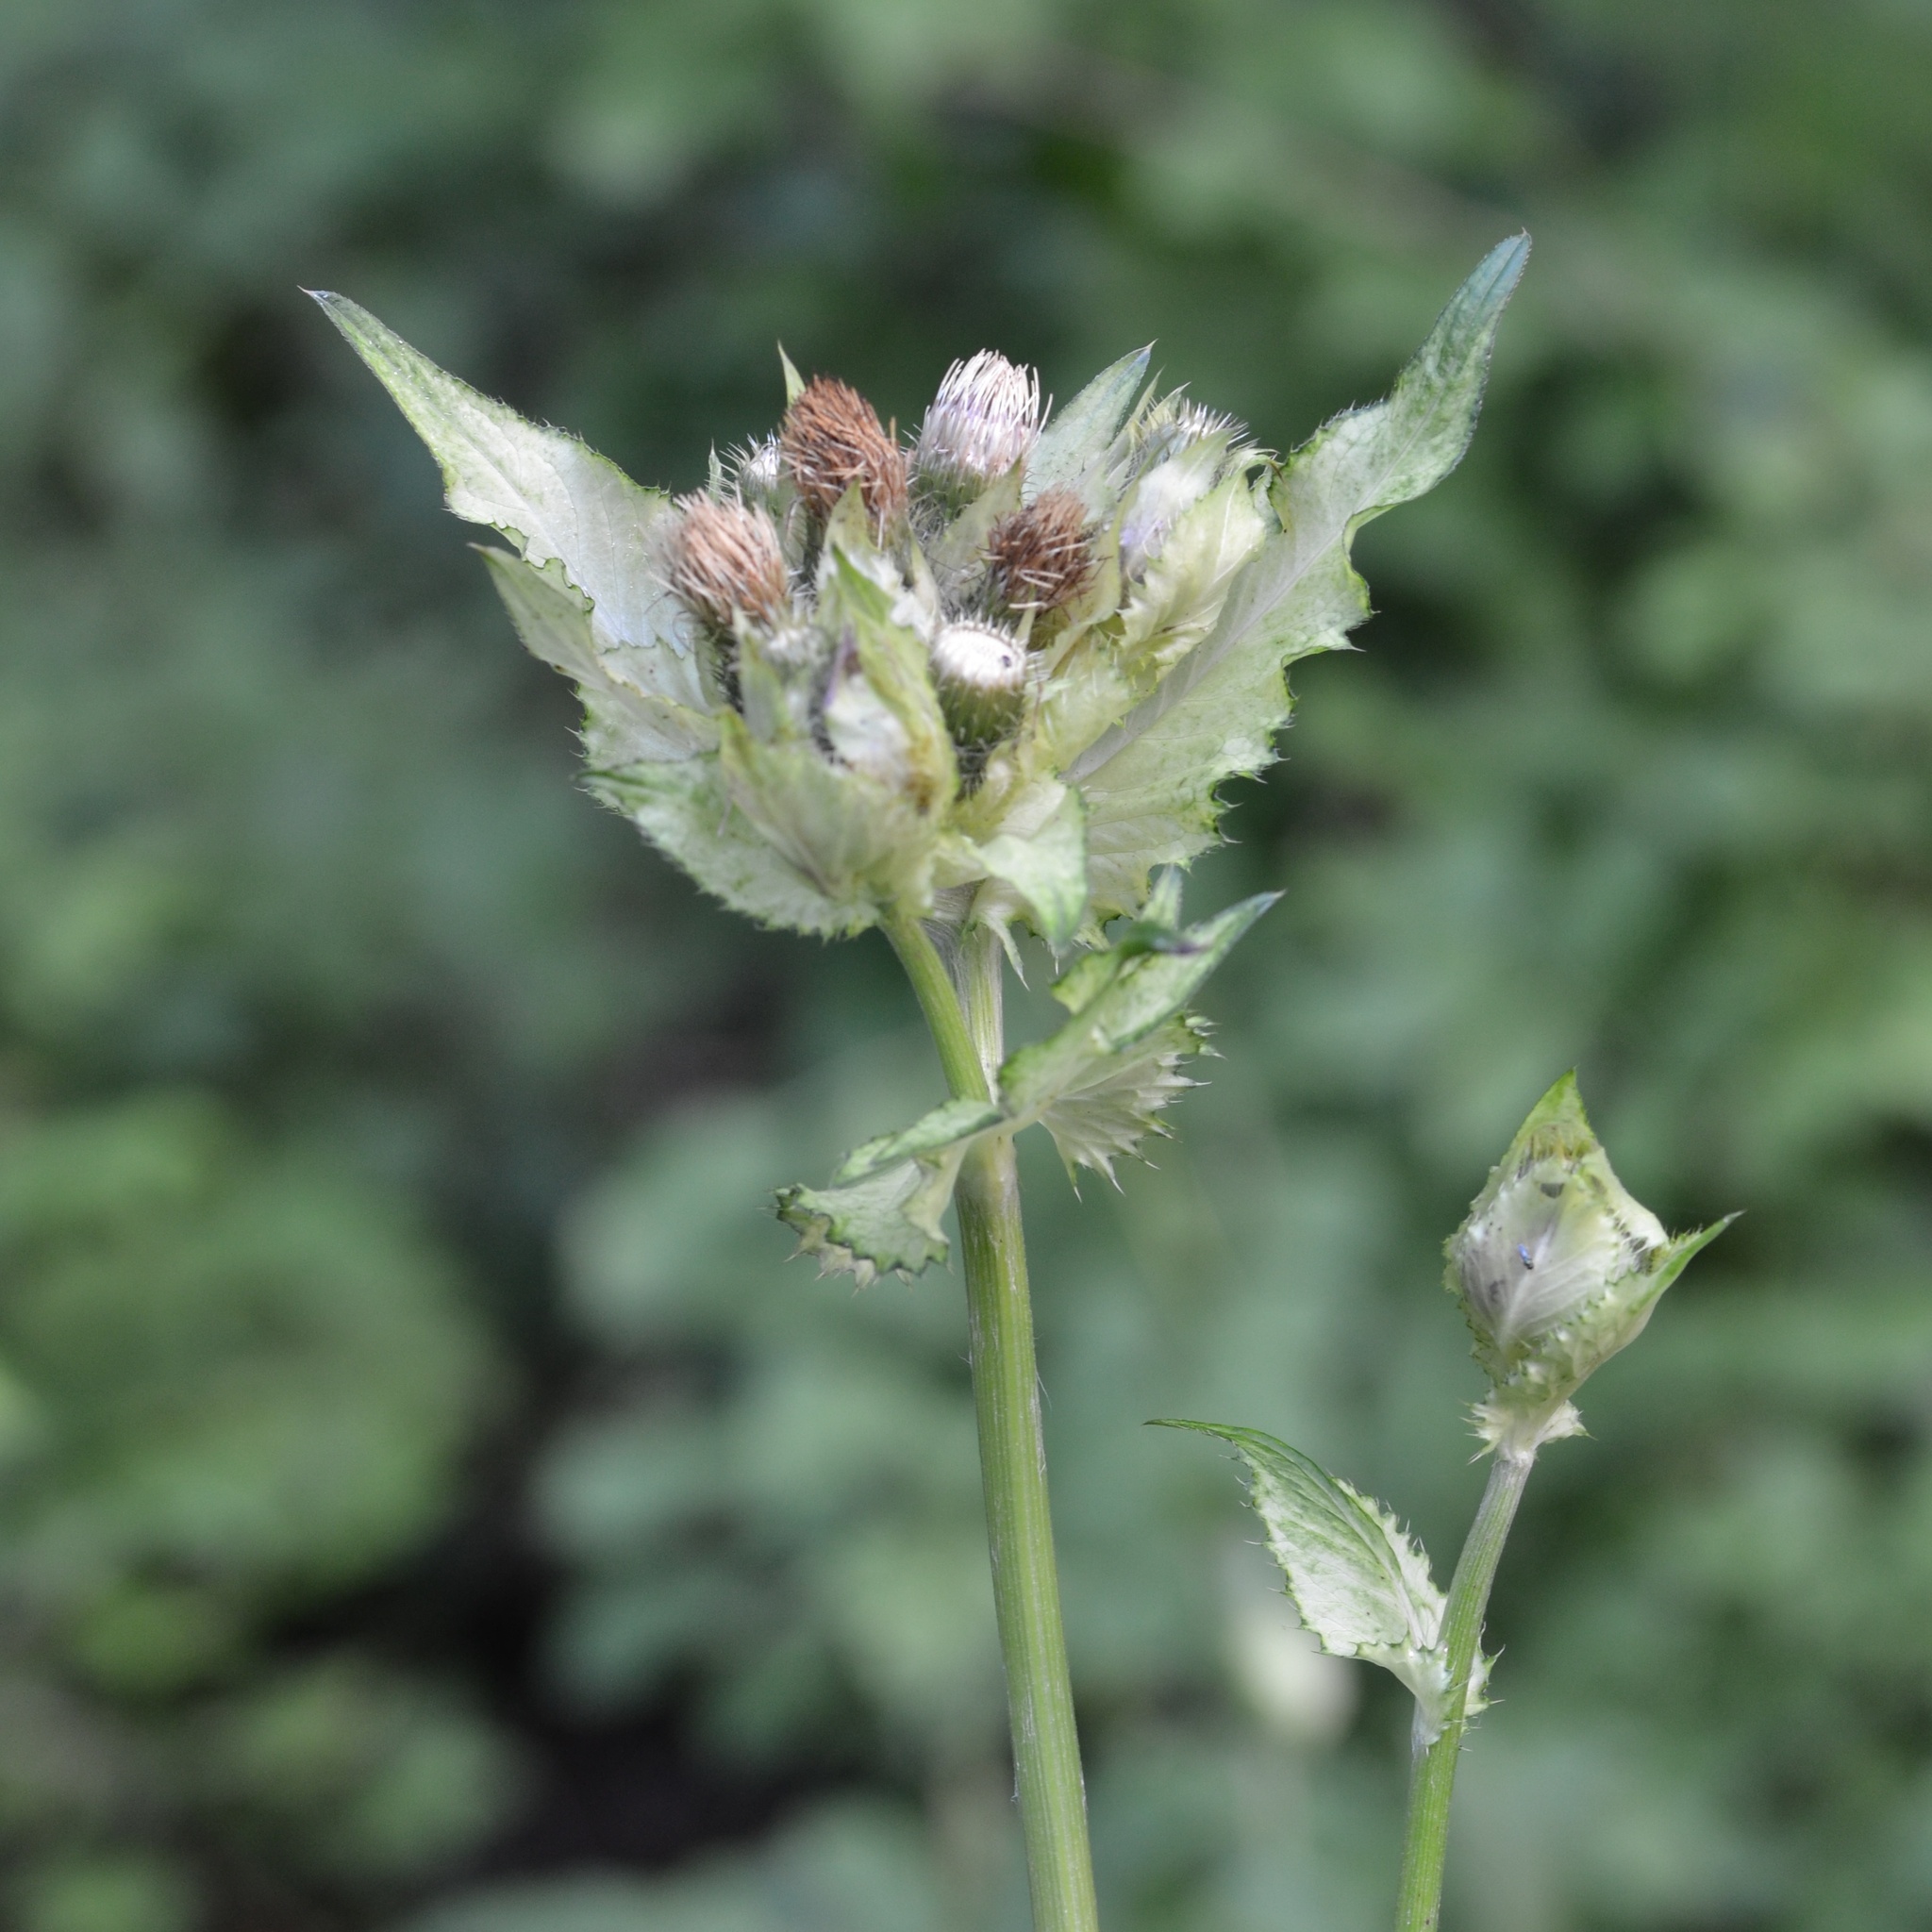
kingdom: Plantae
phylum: Tracheophyta
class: Magnoliopsida
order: Asterales
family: Asteraceae
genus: Cirsium
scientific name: Cirsium oleraceum
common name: Cabbage thistle
